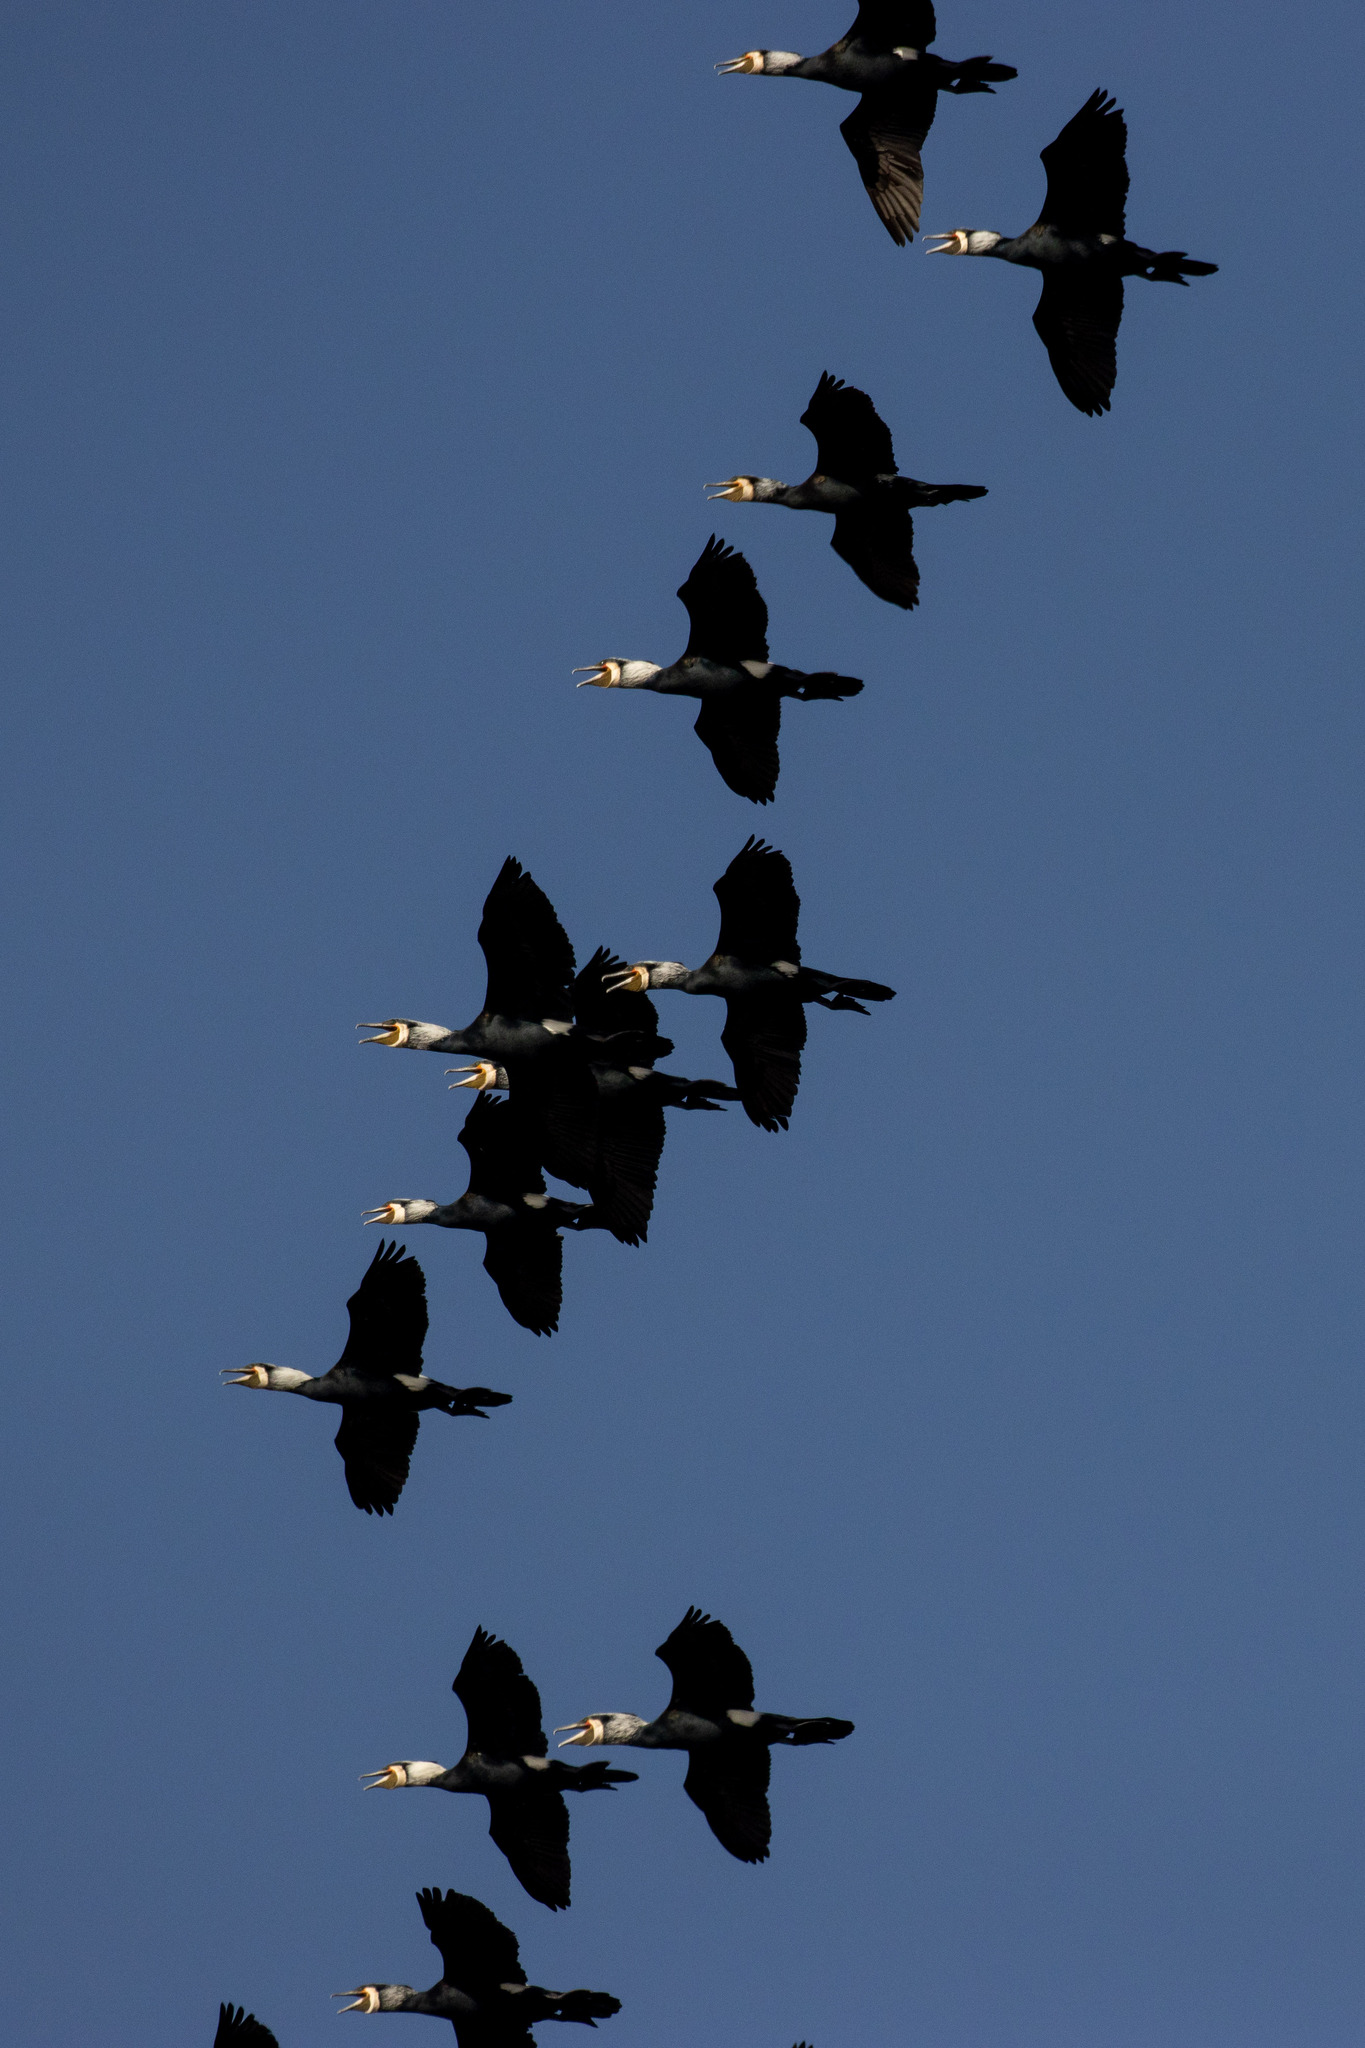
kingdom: Animalia
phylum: Chordata
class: Aves
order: Suliformes
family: Phalacrocoracidae
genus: Phalacrocorax
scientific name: Phalacrocorax carbo
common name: Great cormorant
